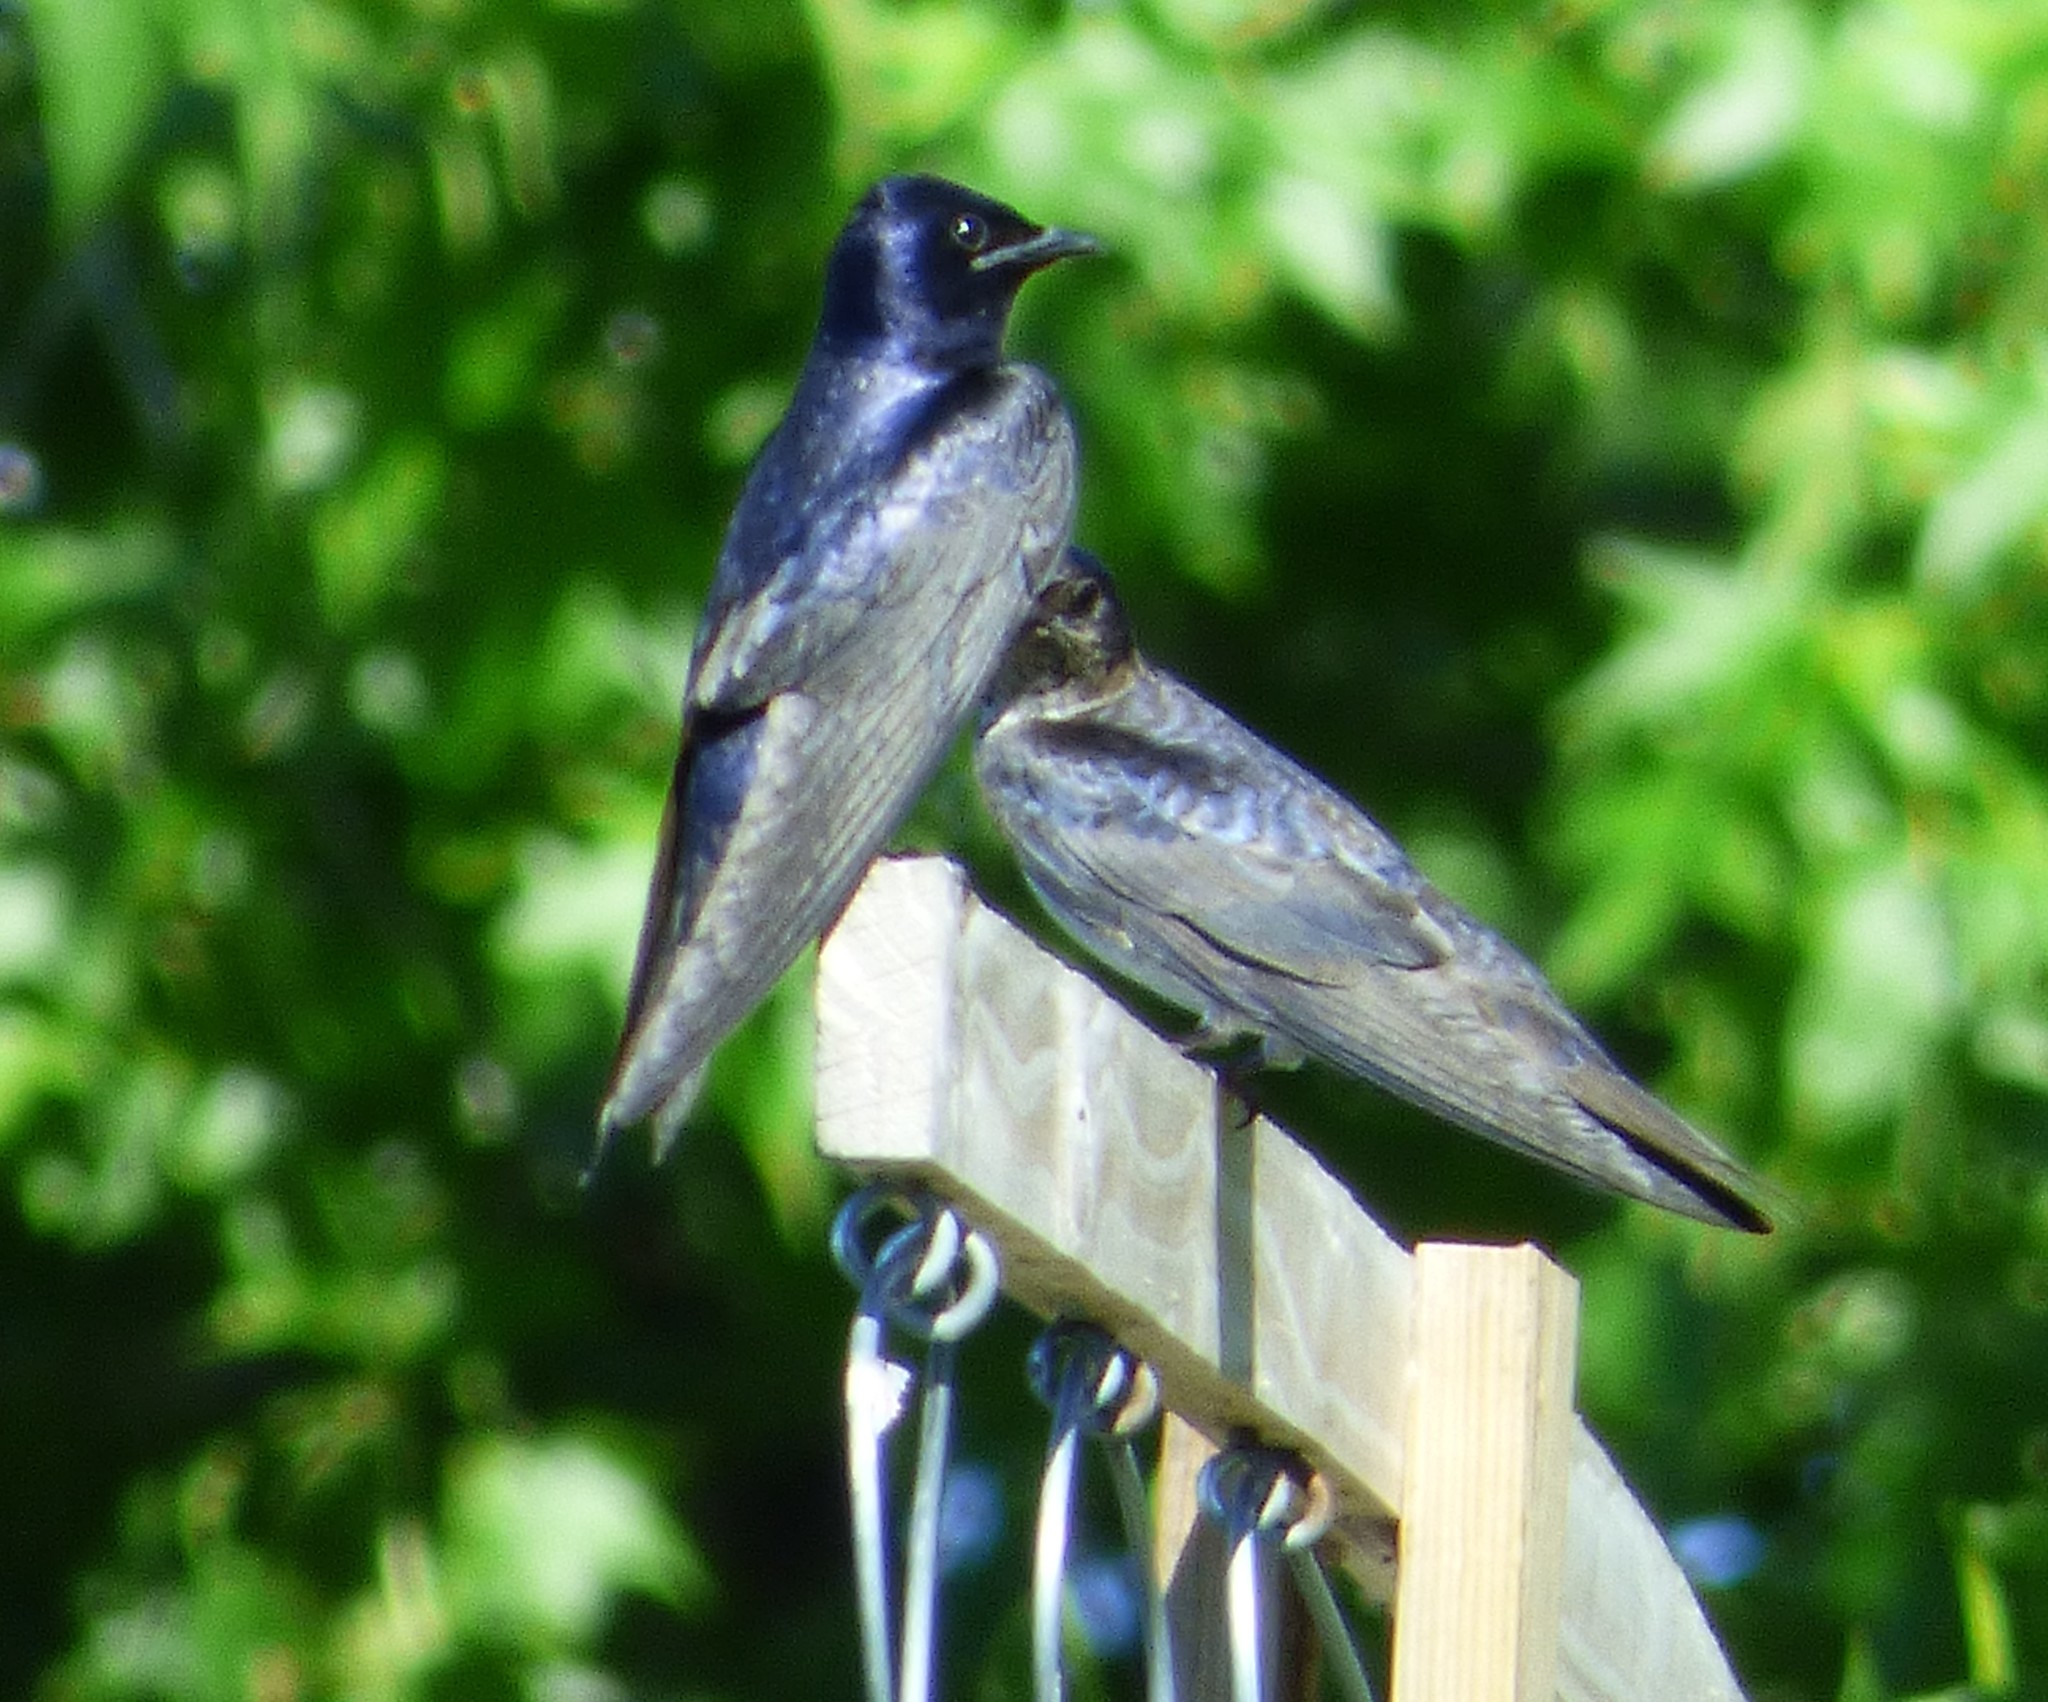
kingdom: Animalia
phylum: Chordata
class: Aves
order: Passeriformes
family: Hirundinidae
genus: Progne
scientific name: Progne subis
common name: Purple martin
